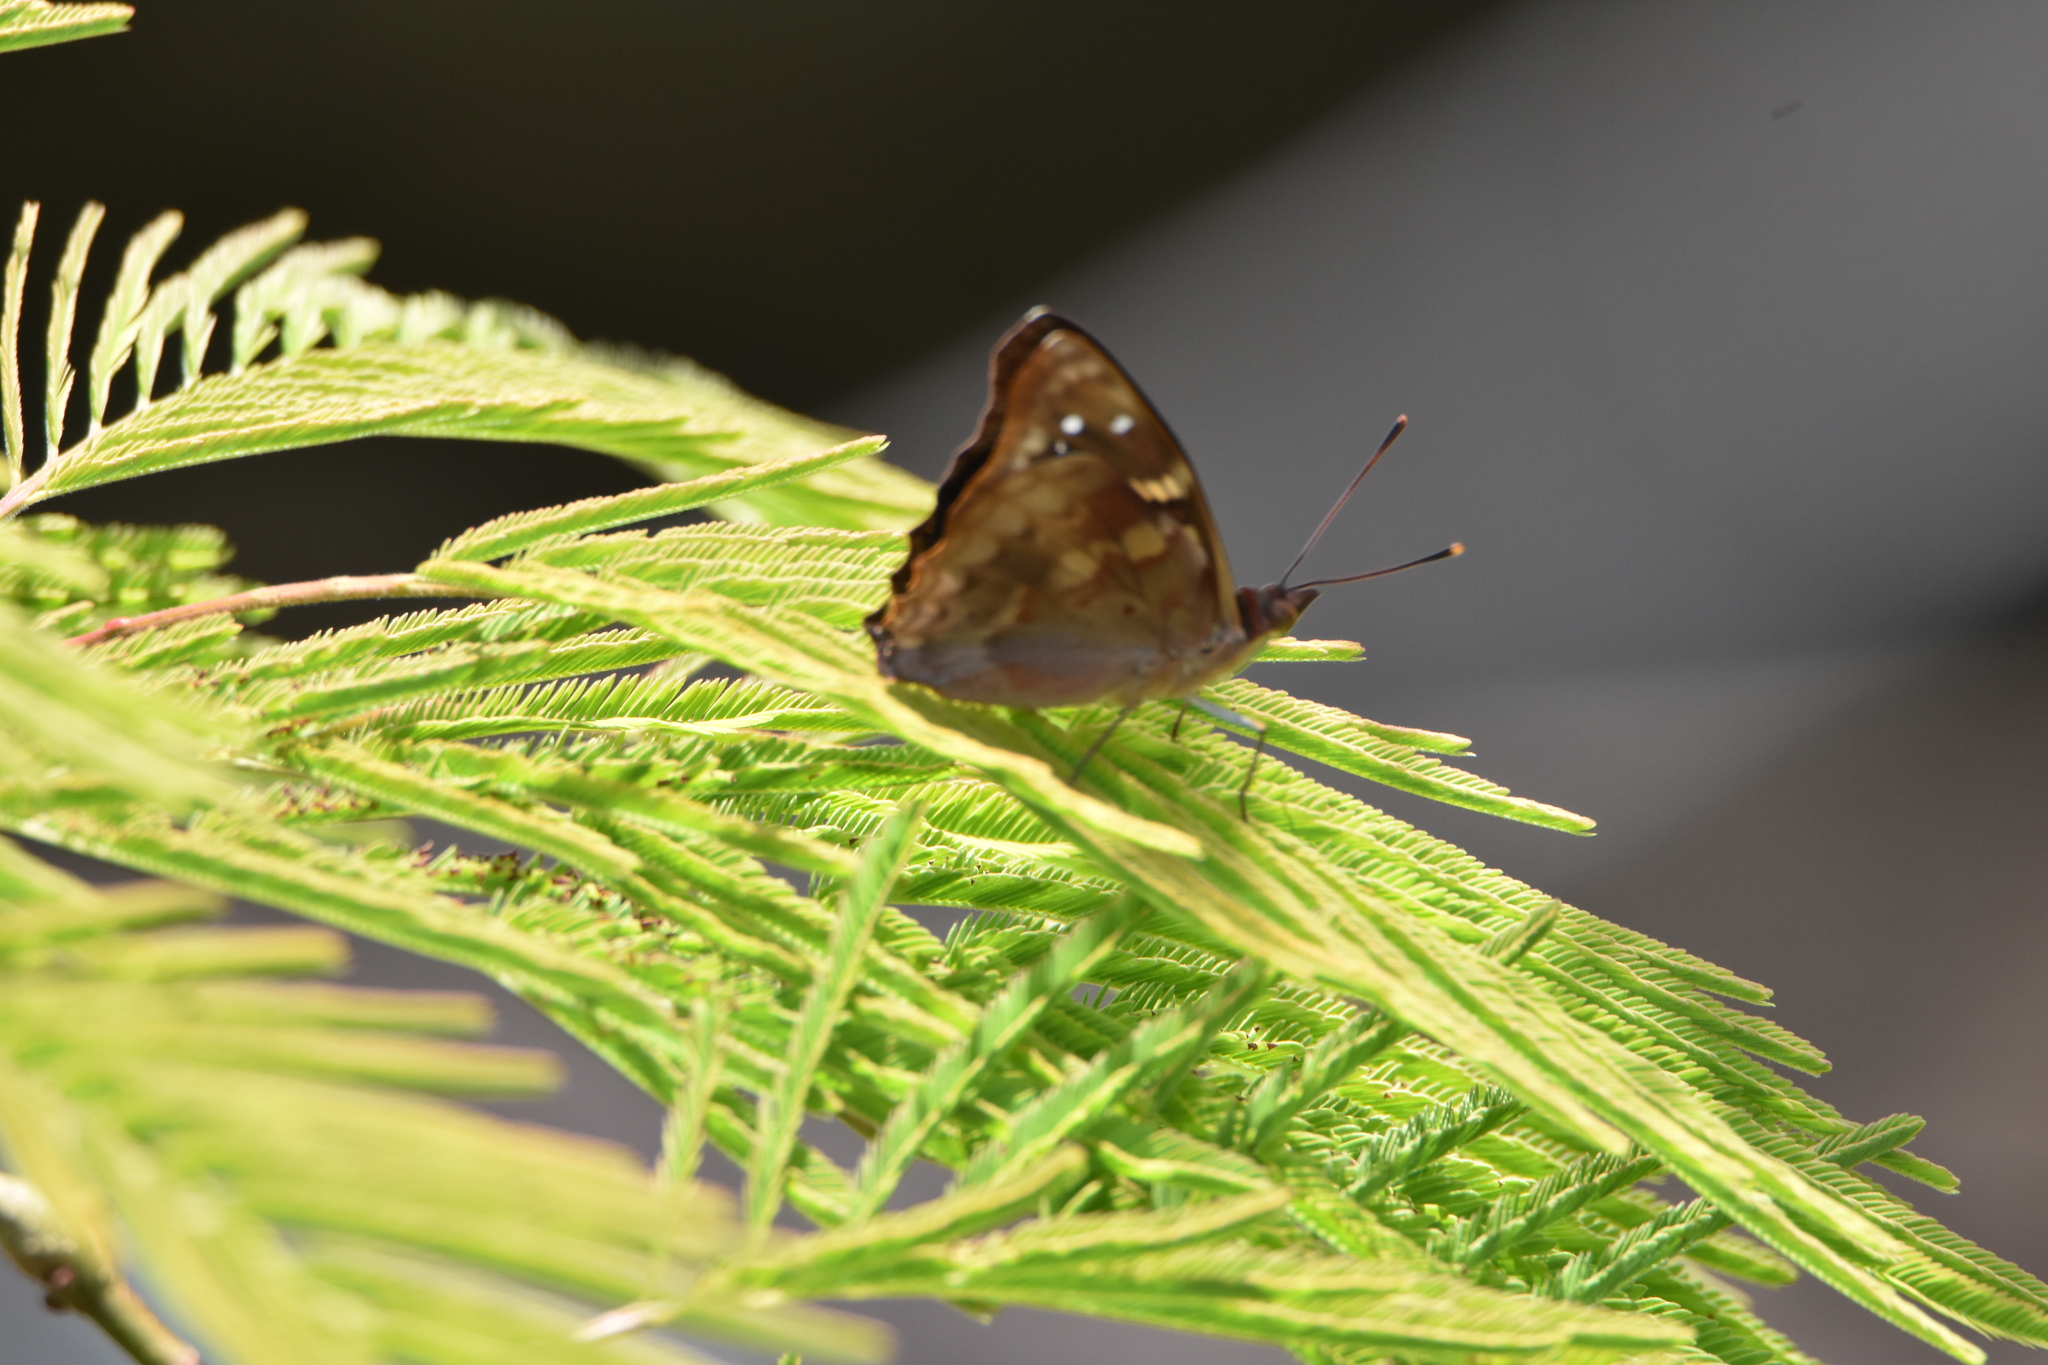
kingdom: Animalia
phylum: Arthropoda
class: Insecta
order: Lepidoptera
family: Nymphalidae
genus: Doxocopa
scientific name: Doxocopa agathina
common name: Agathina emperor
